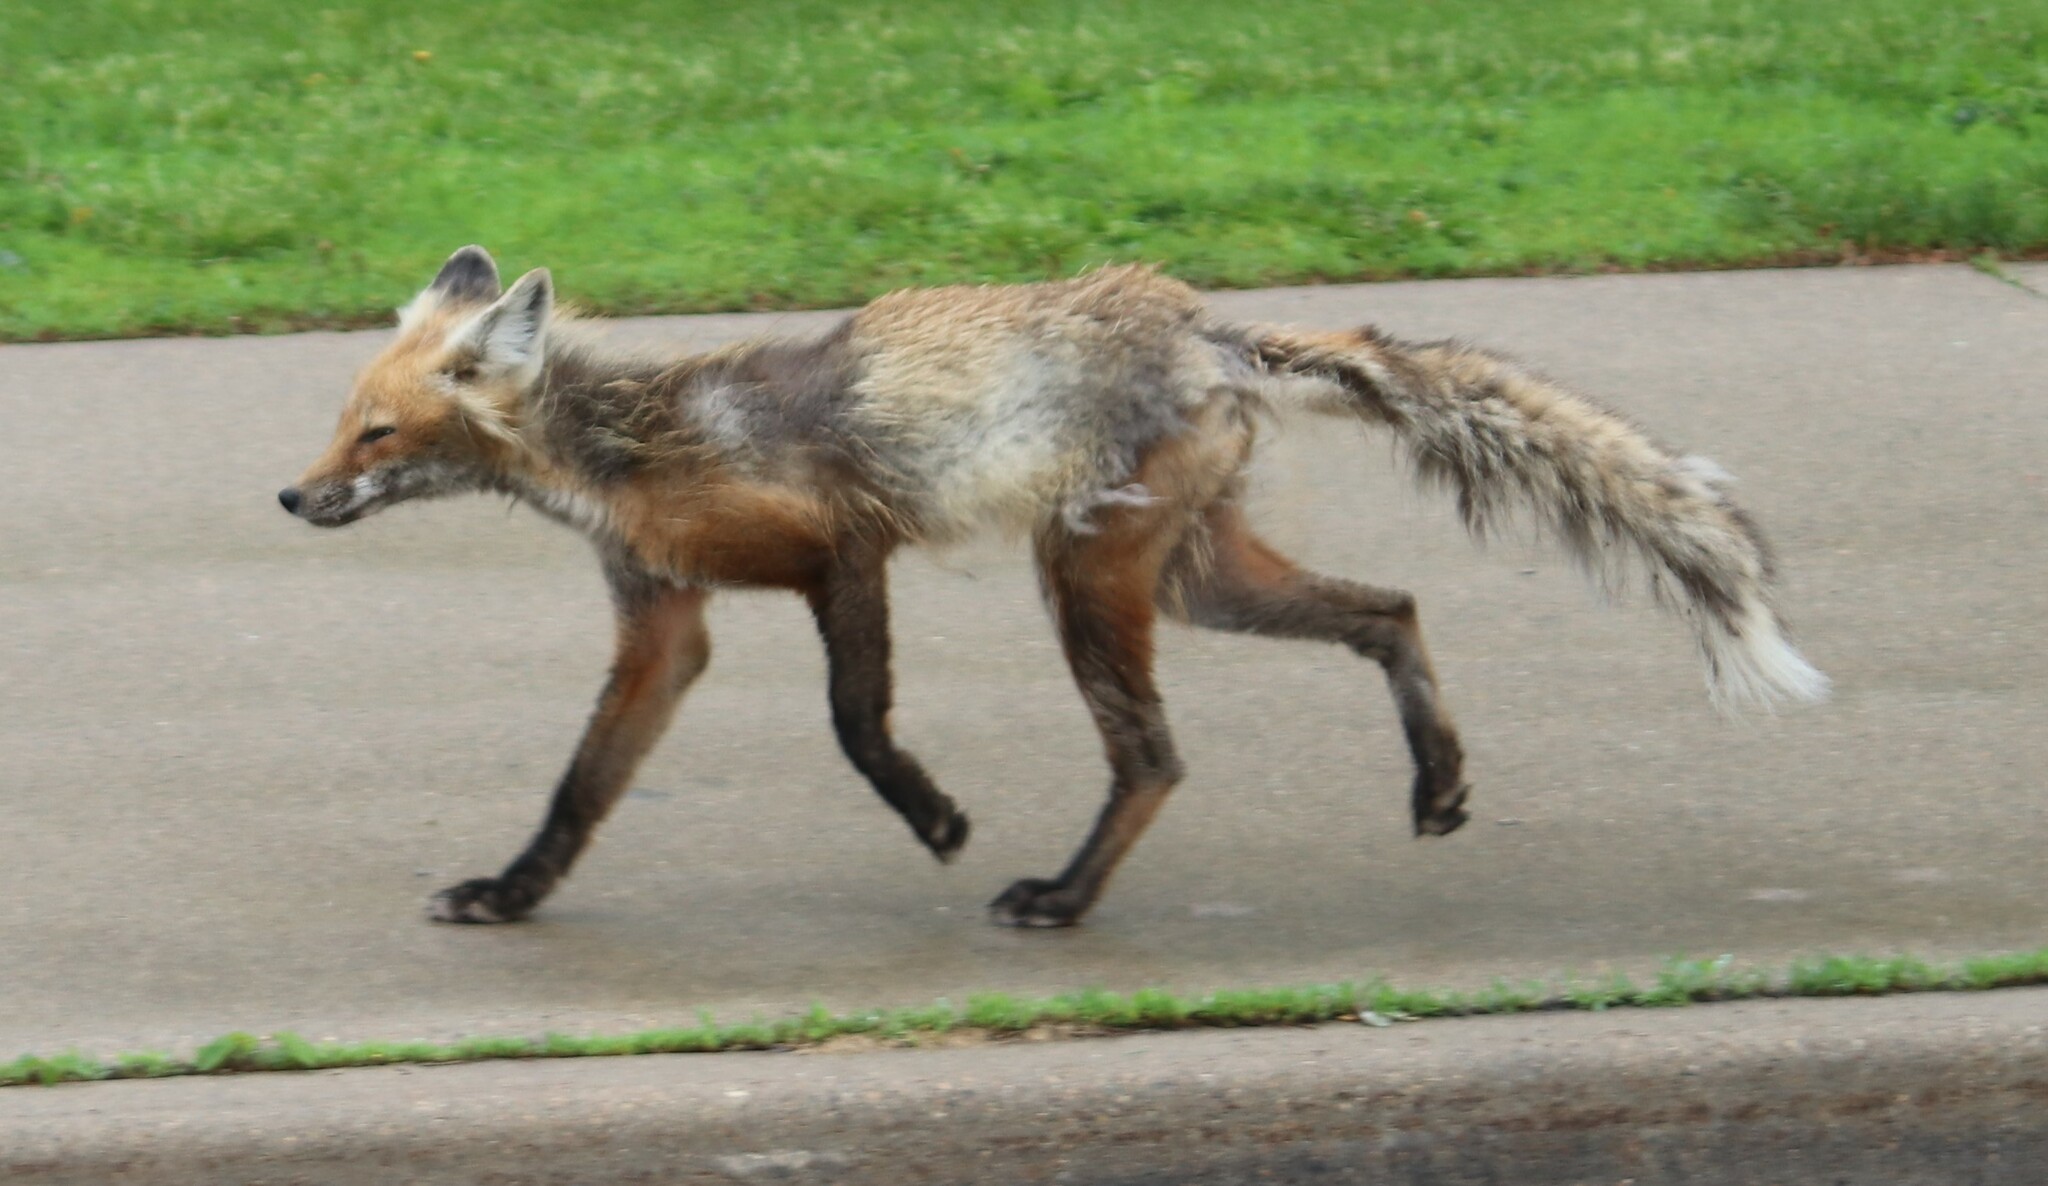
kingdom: Animalia
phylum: Chordata
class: Mammalia
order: Carnivora
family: Canidae
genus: Vulpes
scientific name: Vulpes vulpes
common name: Red fox
